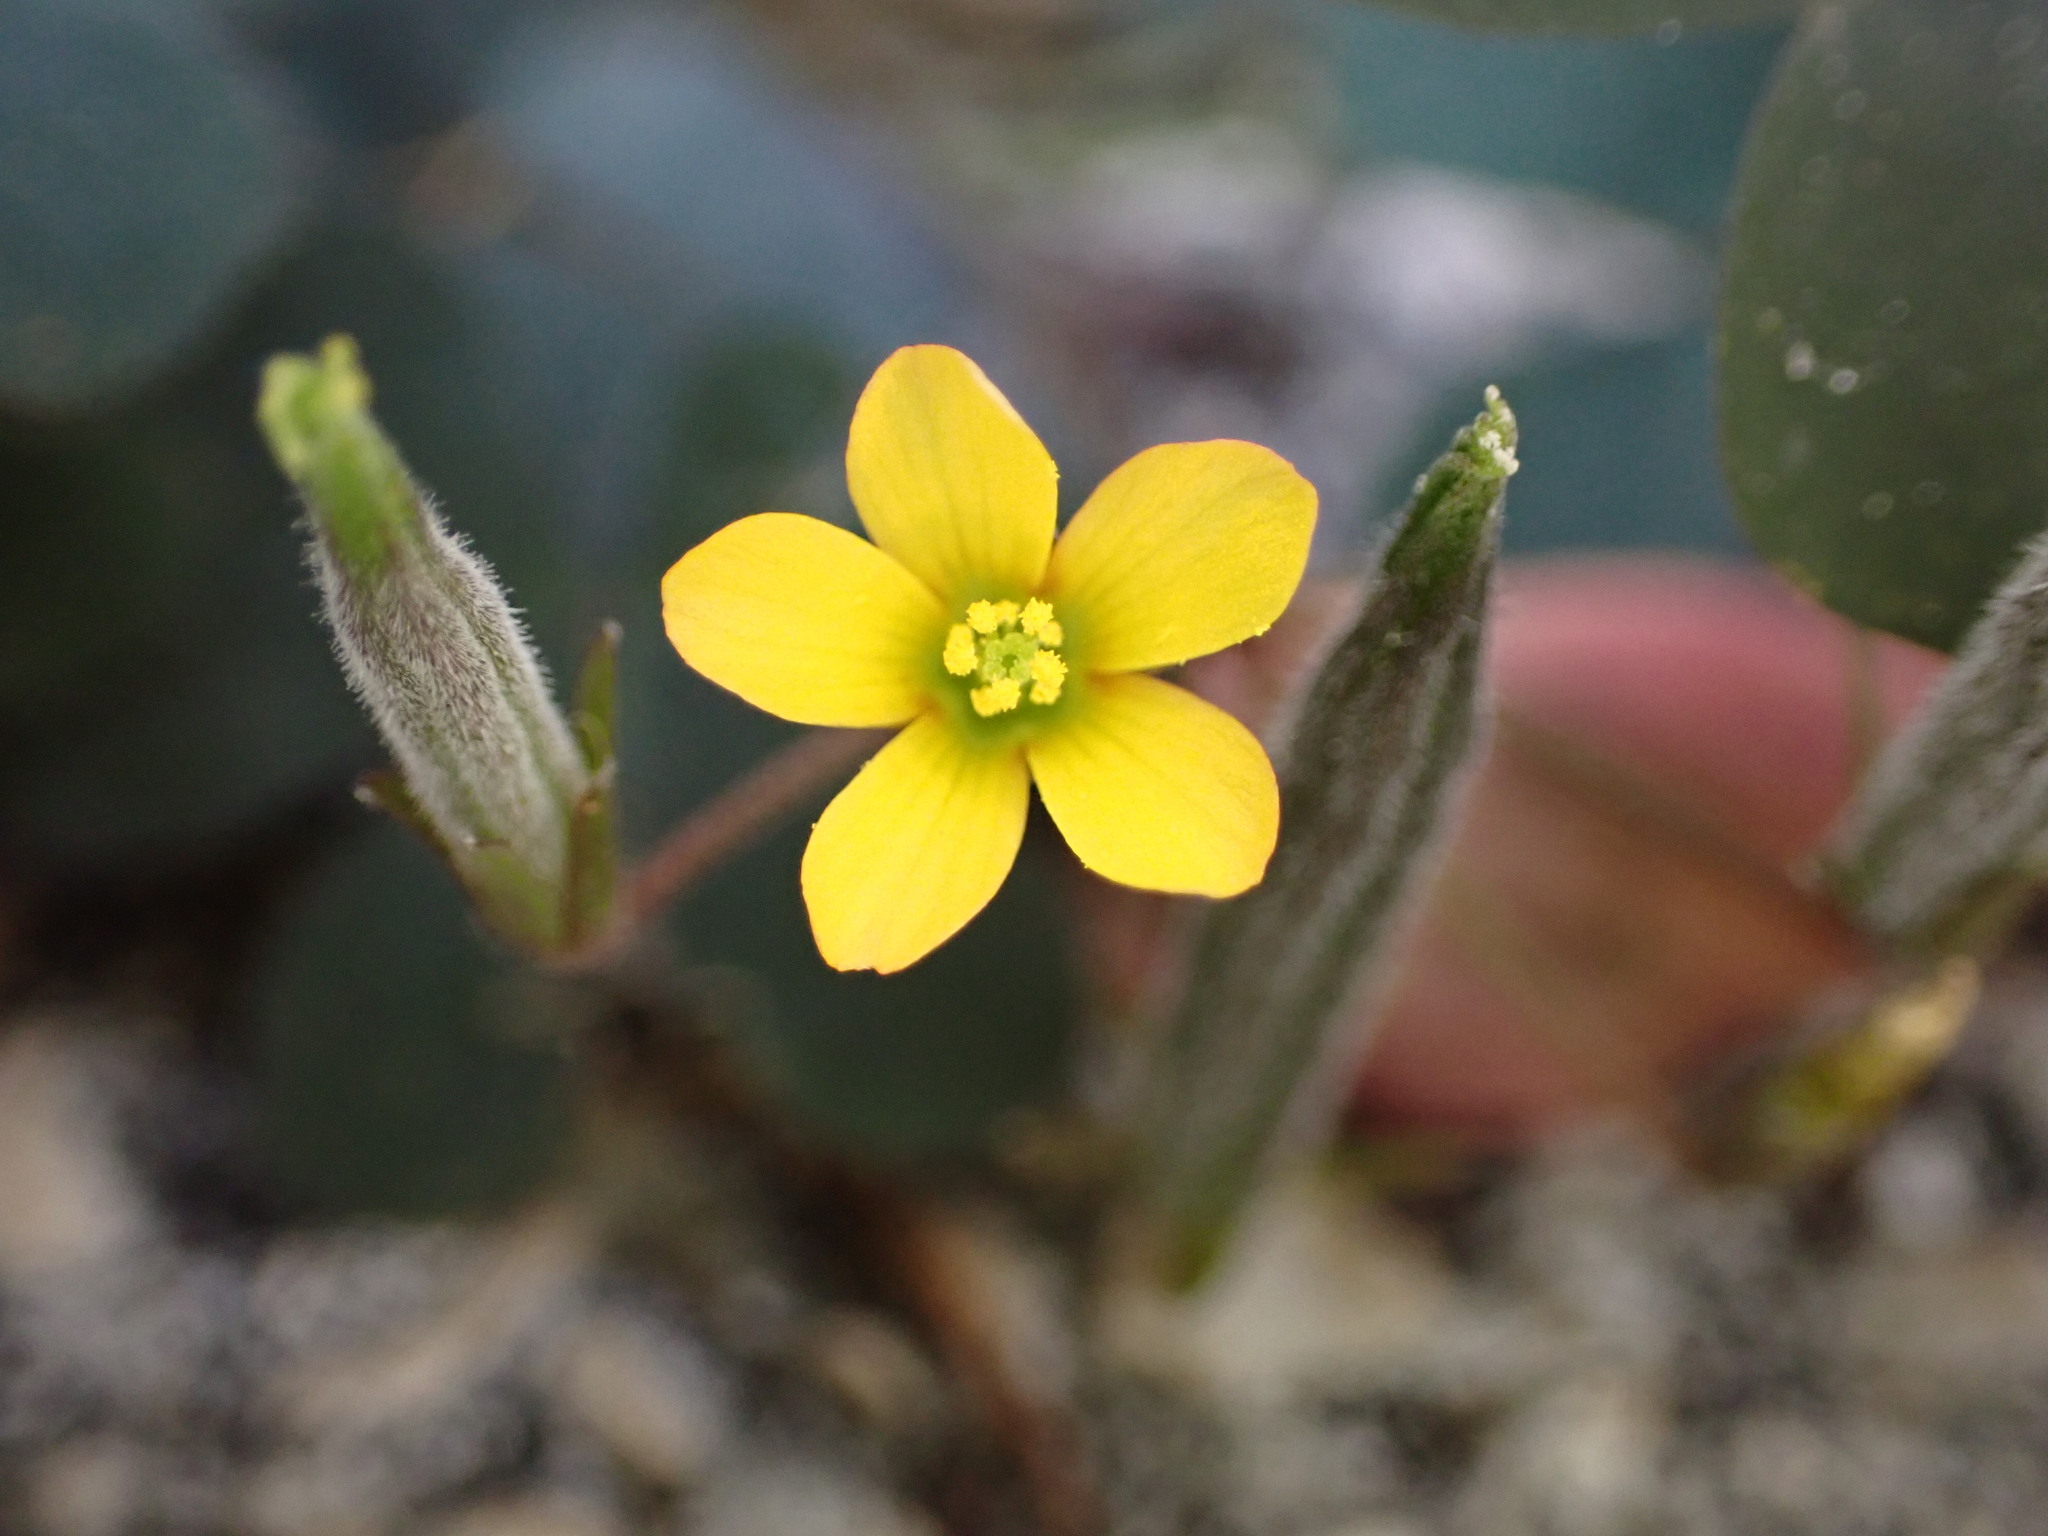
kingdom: Plantae
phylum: Tracheophyta
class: Magnoliopsida
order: Oxalidales
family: Oxalidaceae
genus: Oxalis
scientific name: Oxalis corniculata
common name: Procumbent yellow-sorrel
